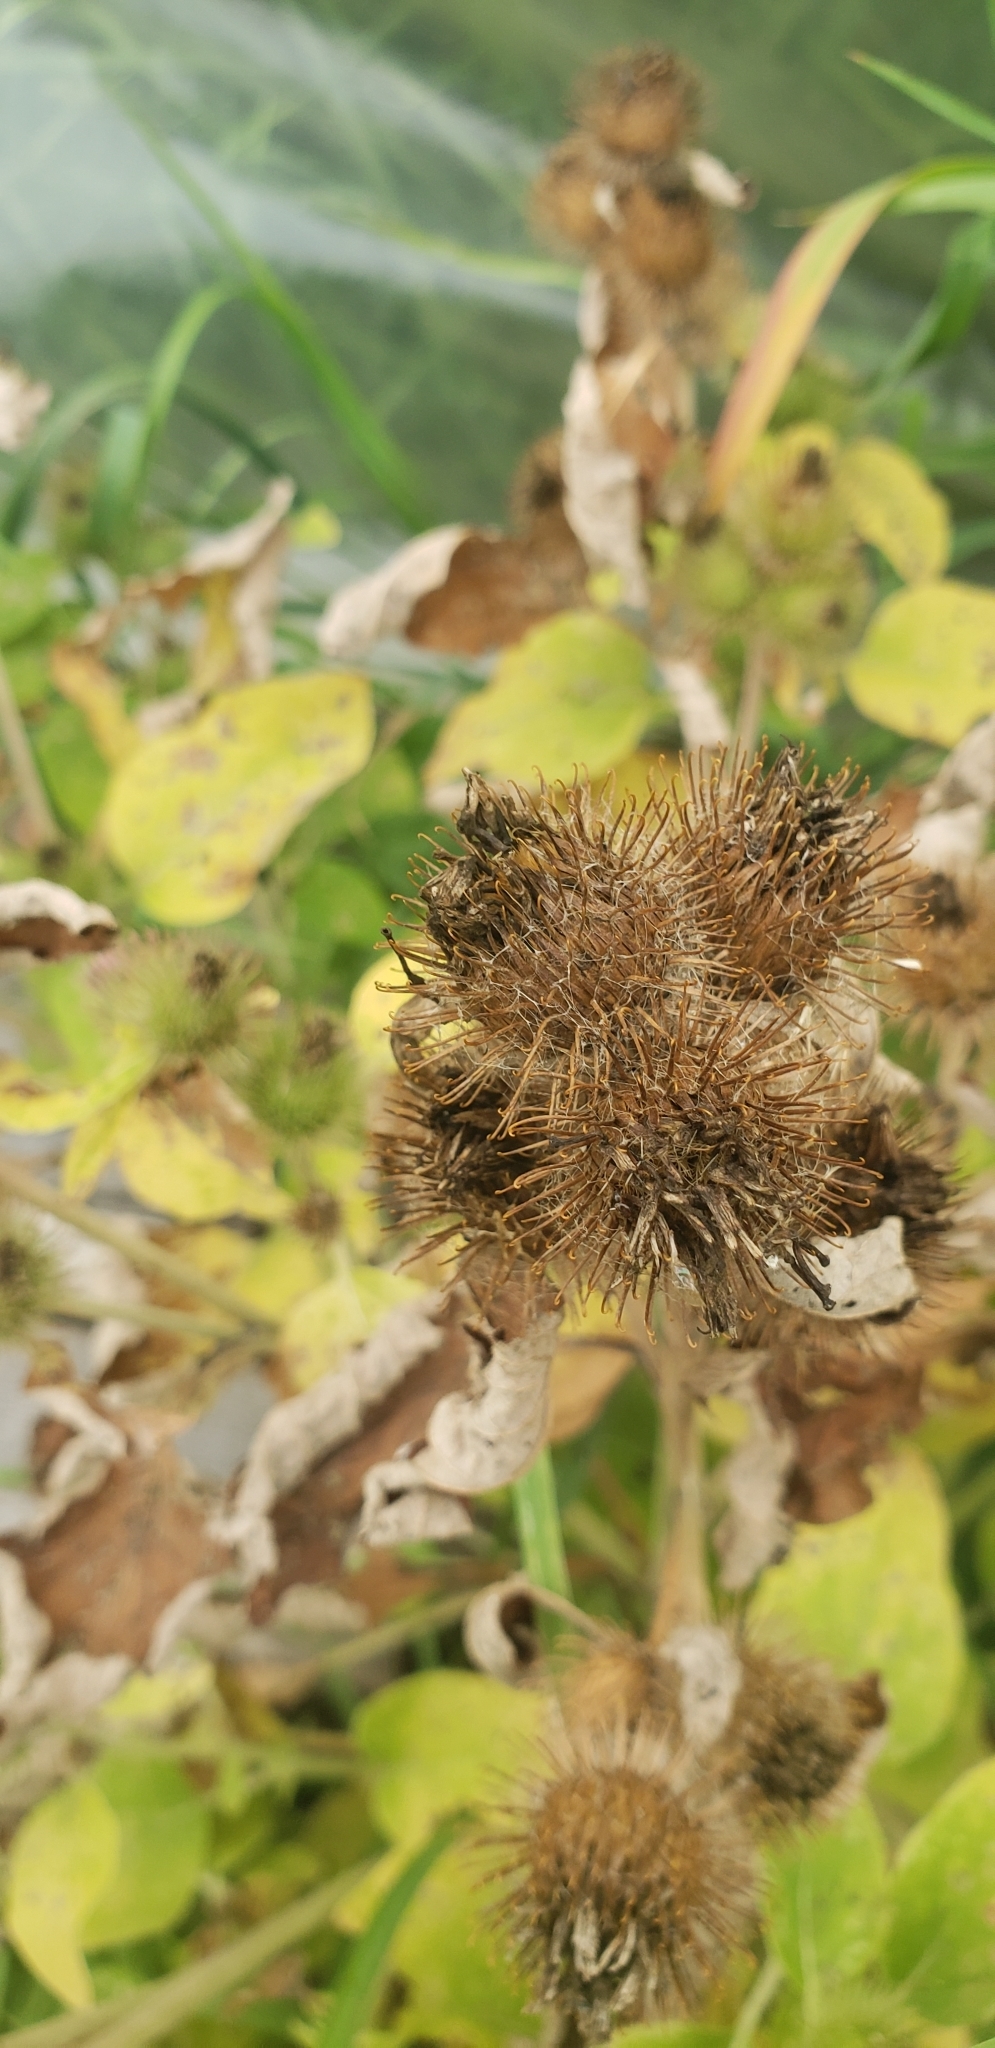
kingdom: Plantae
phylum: Tracheophyta
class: Magnoliopsida
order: Asterales
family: Asteraceae
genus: Arctium
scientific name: Arctium minus
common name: Lesser burdock
